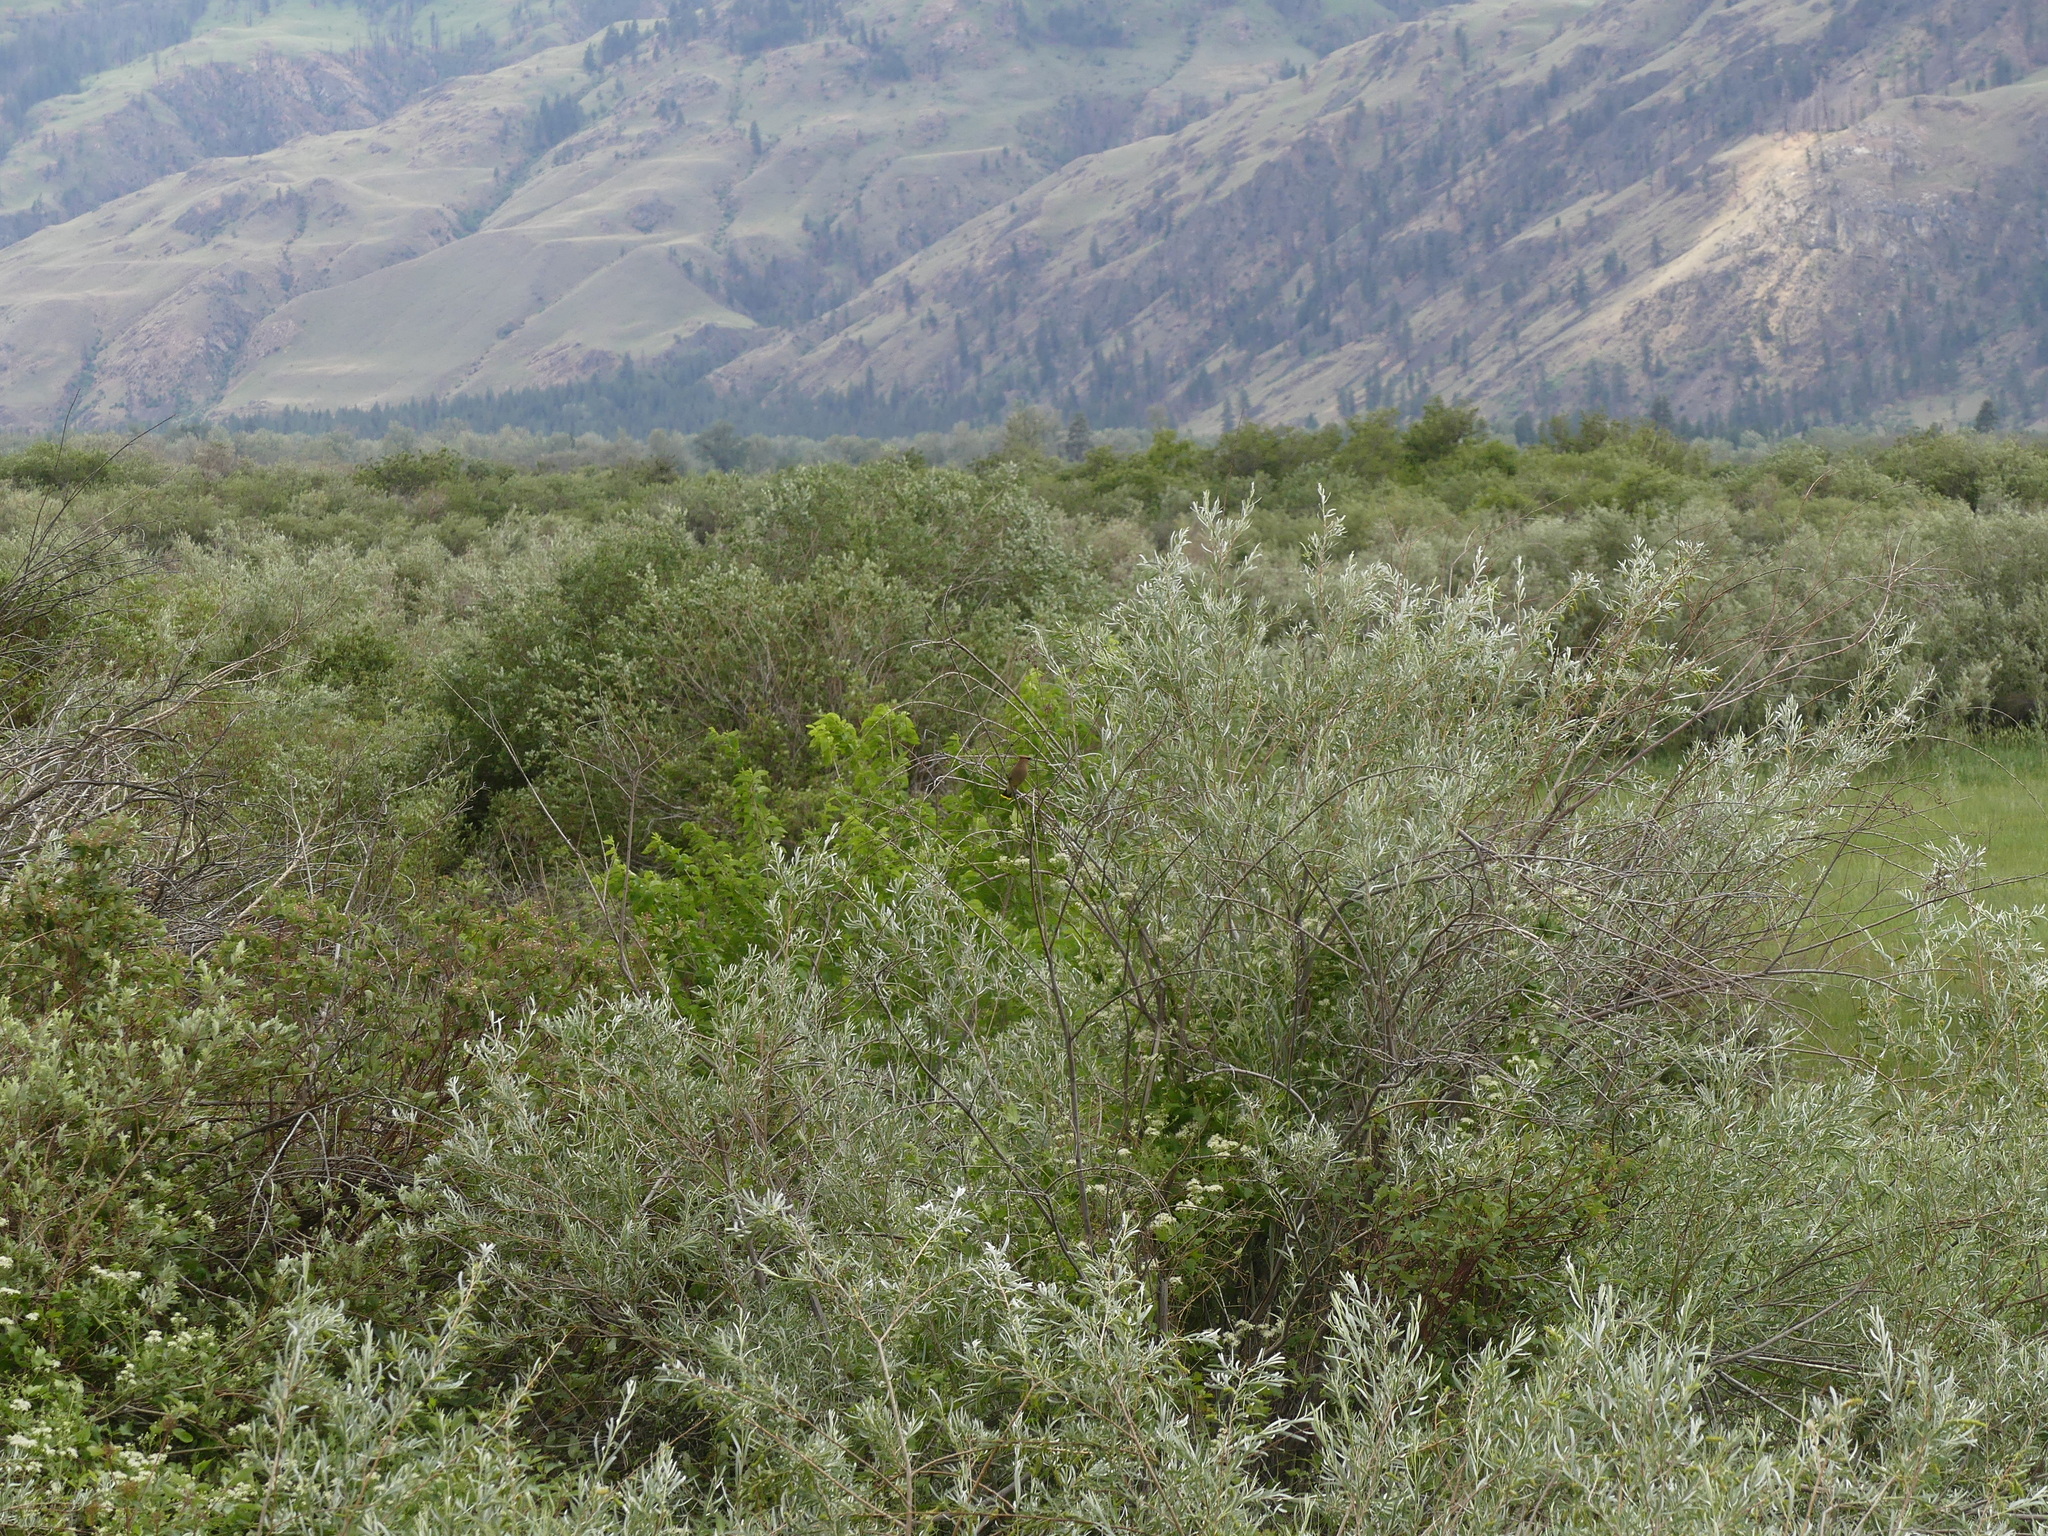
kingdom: Animalia
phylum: Chordata
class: Aves
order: Passeriformes
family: Bombycillidae
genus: Bombycilla
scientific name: Bombycilla cedrorum
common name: Cedar waxwing
